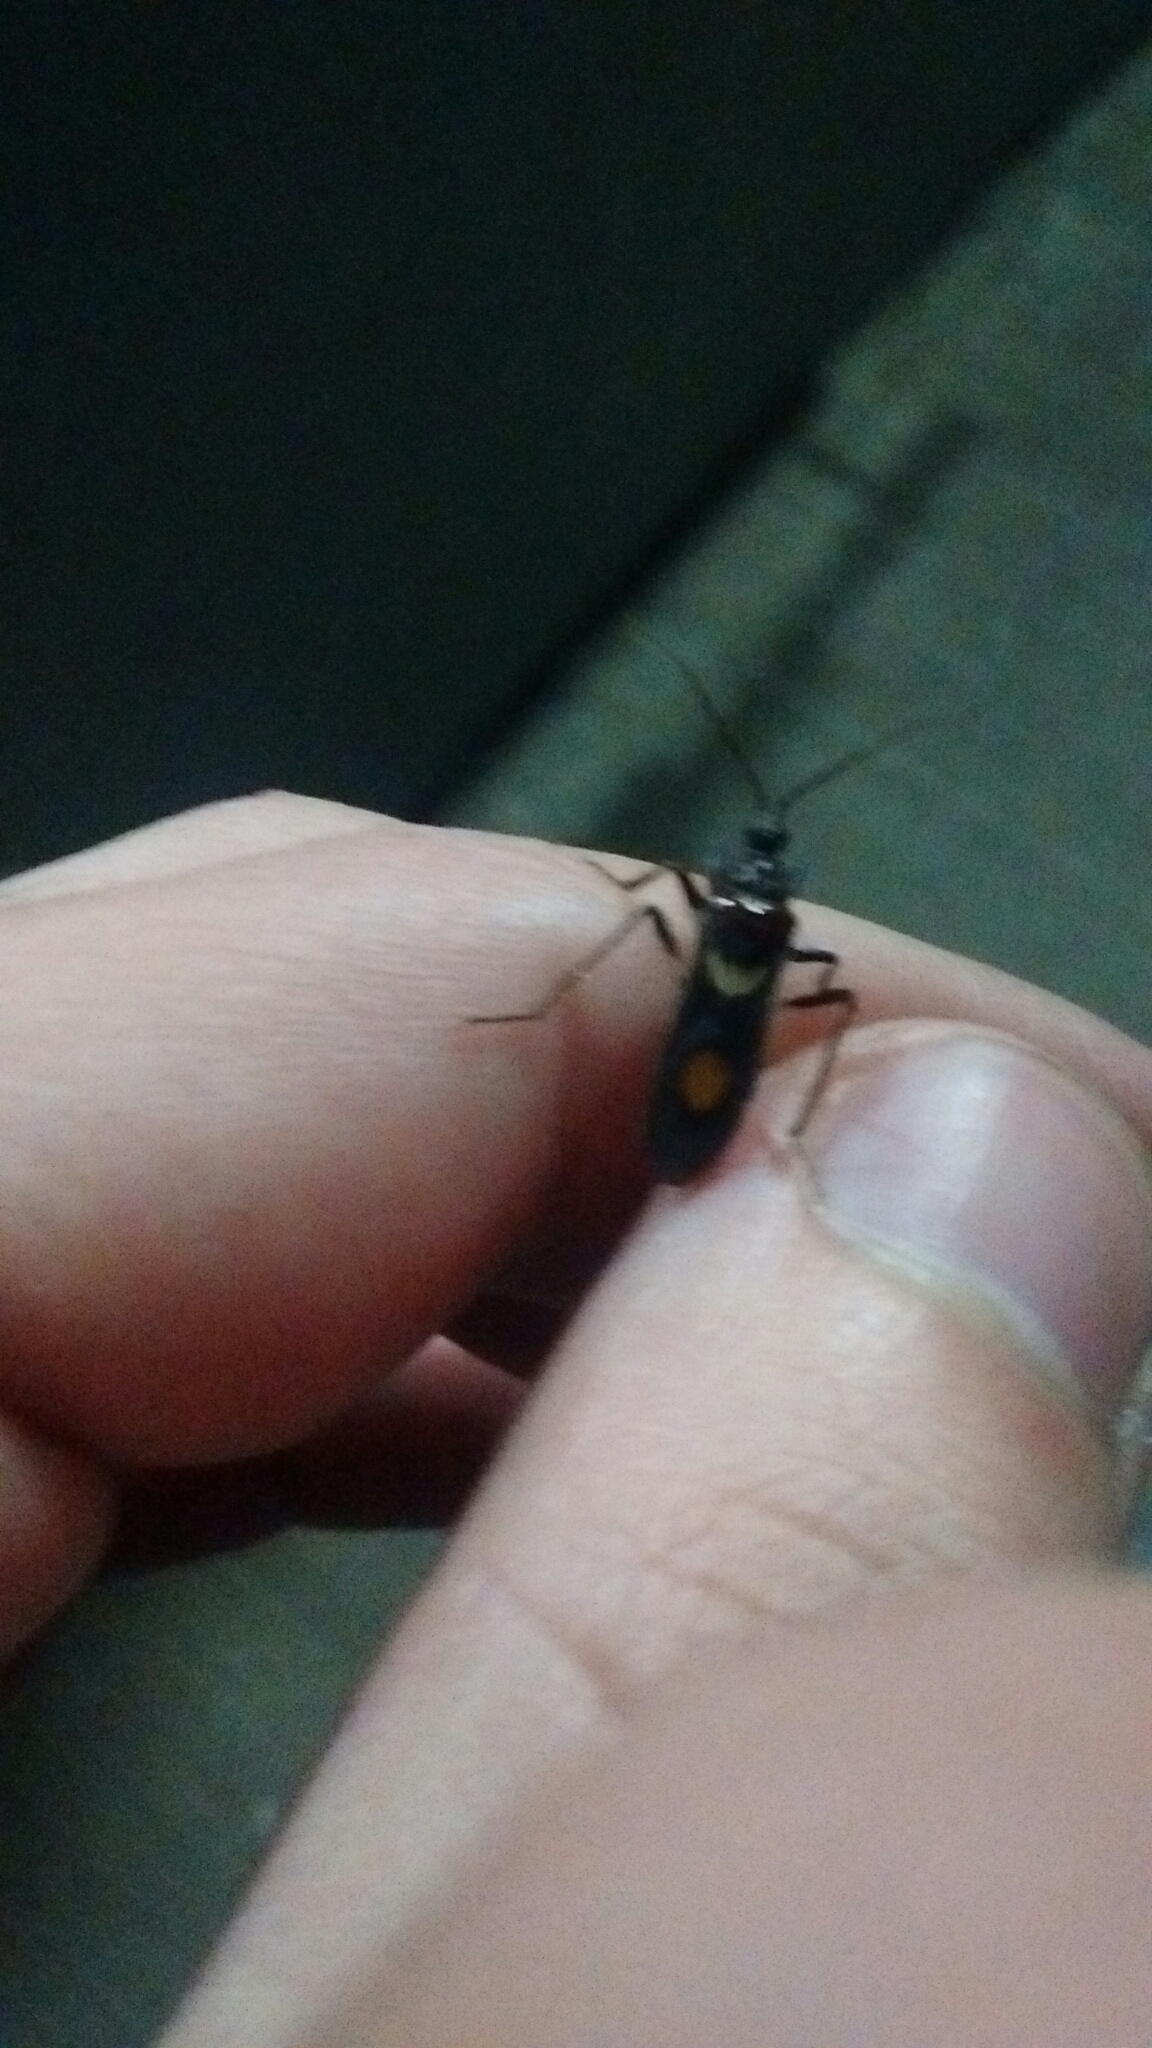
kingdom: Animalia
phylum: Arthropoda
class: Insecta
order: Hemiptera
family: Reduviidae
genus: Rasahus
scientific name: Rasahus hamatus
